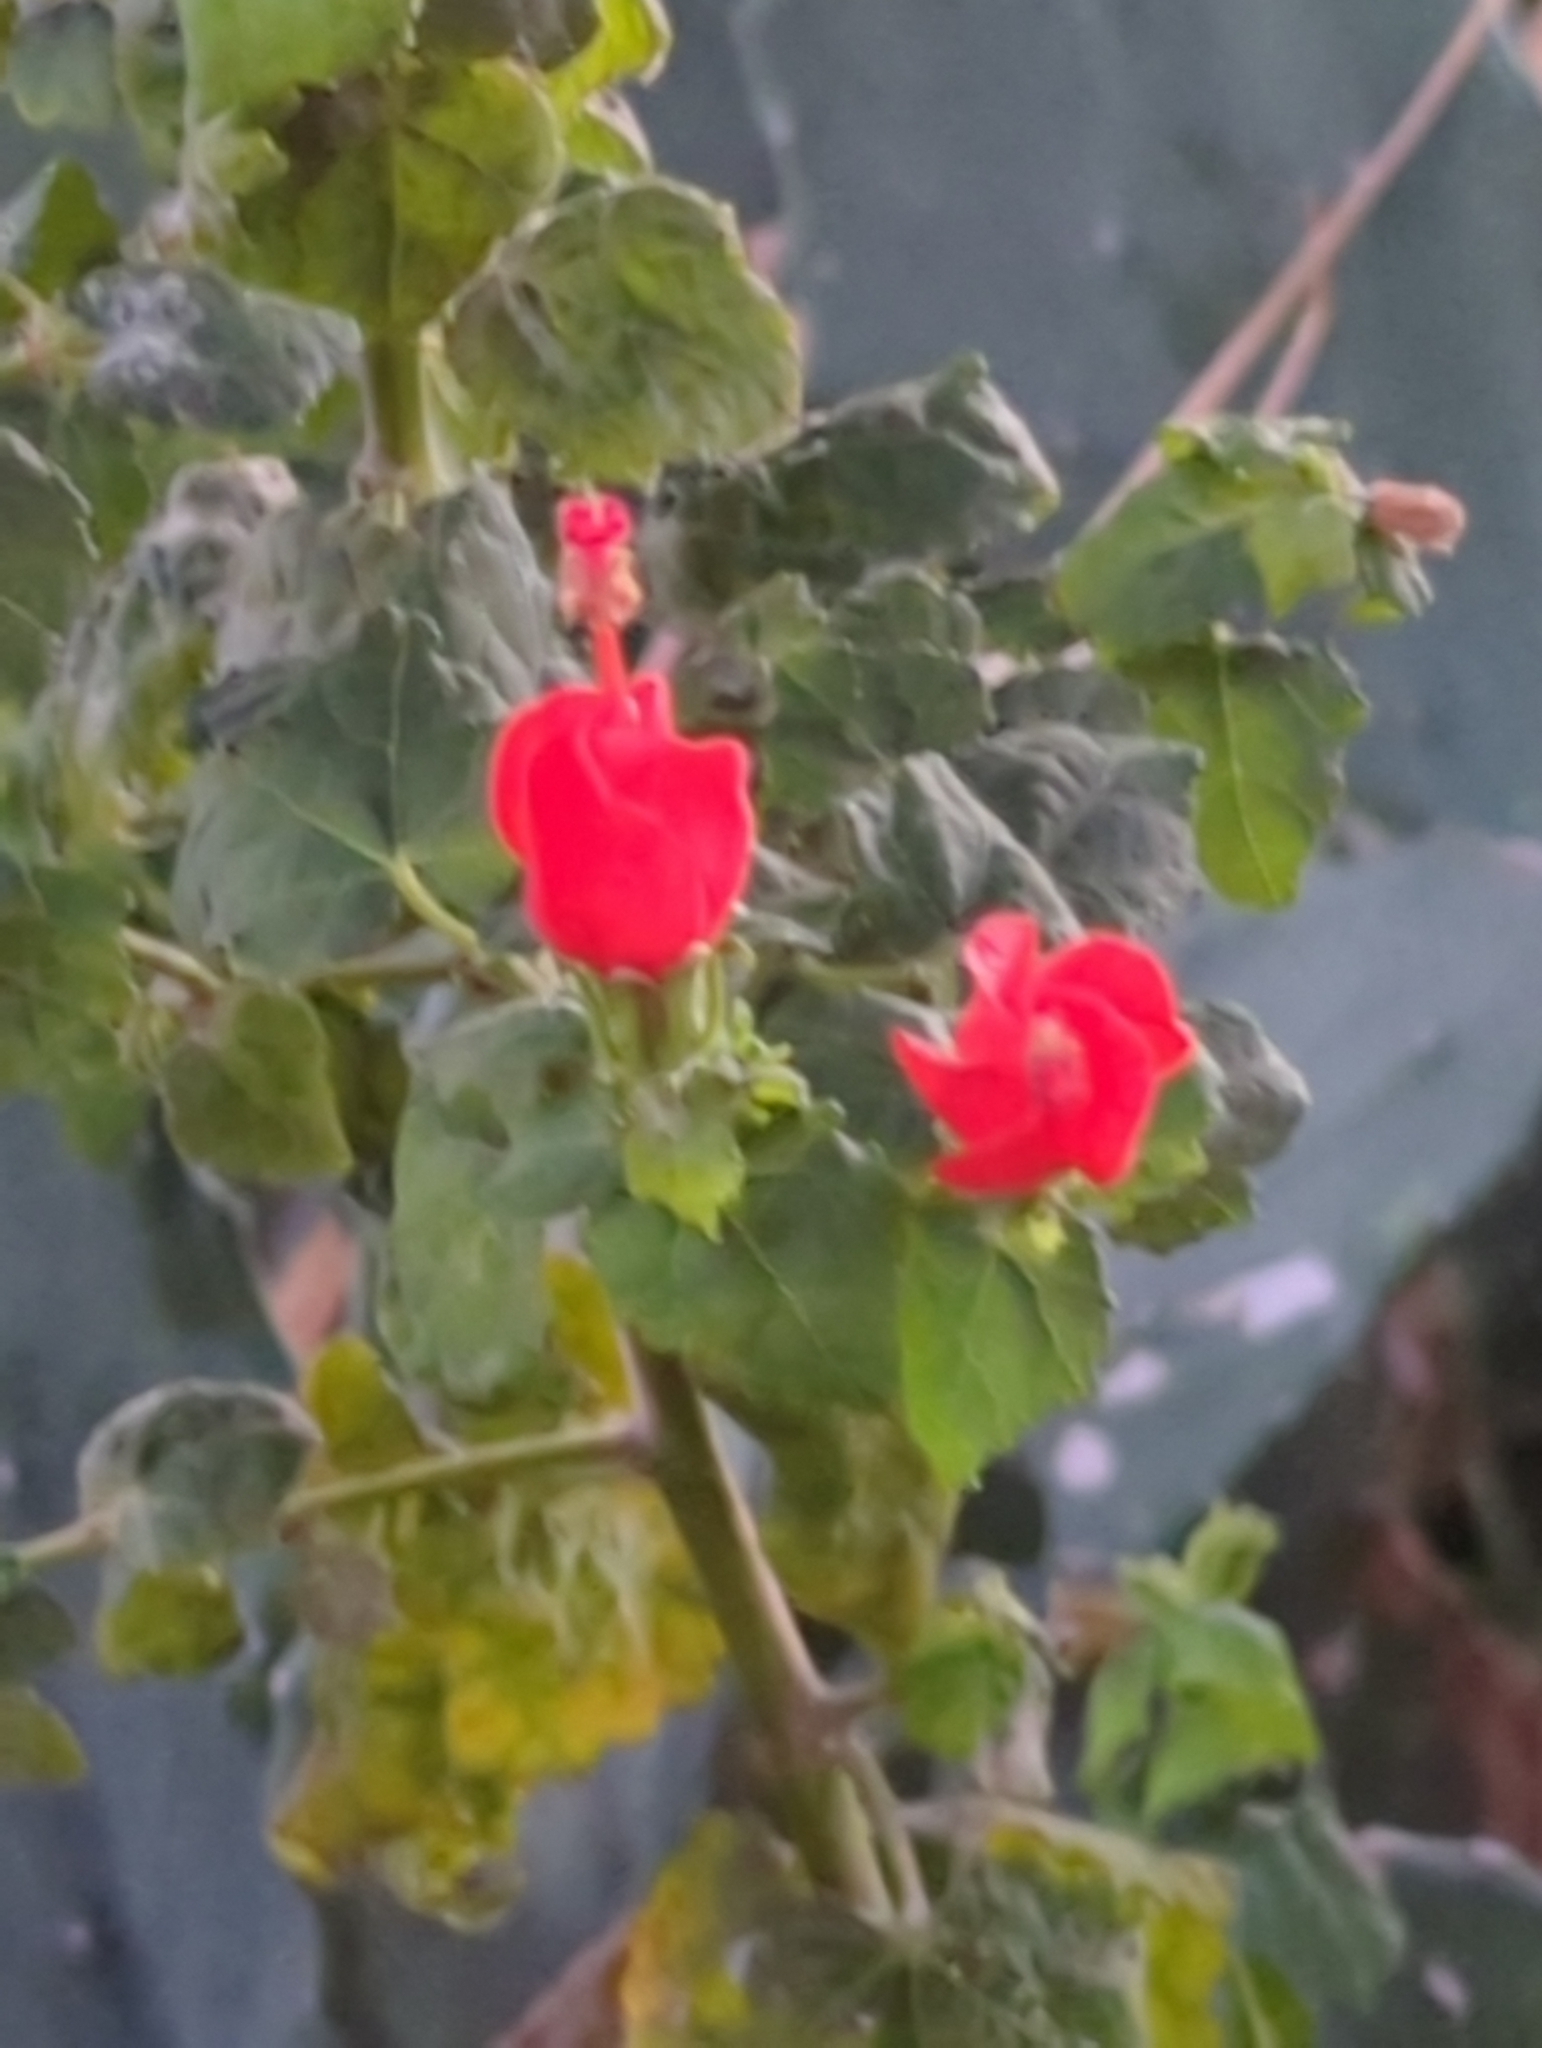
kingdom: Plantae
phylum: Tracheophyta
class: Magnoliopsida
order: Malvales
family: Malvaceae
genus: Malvaviscus
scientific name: Malvaviscus arboreus
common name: Wax mallow
